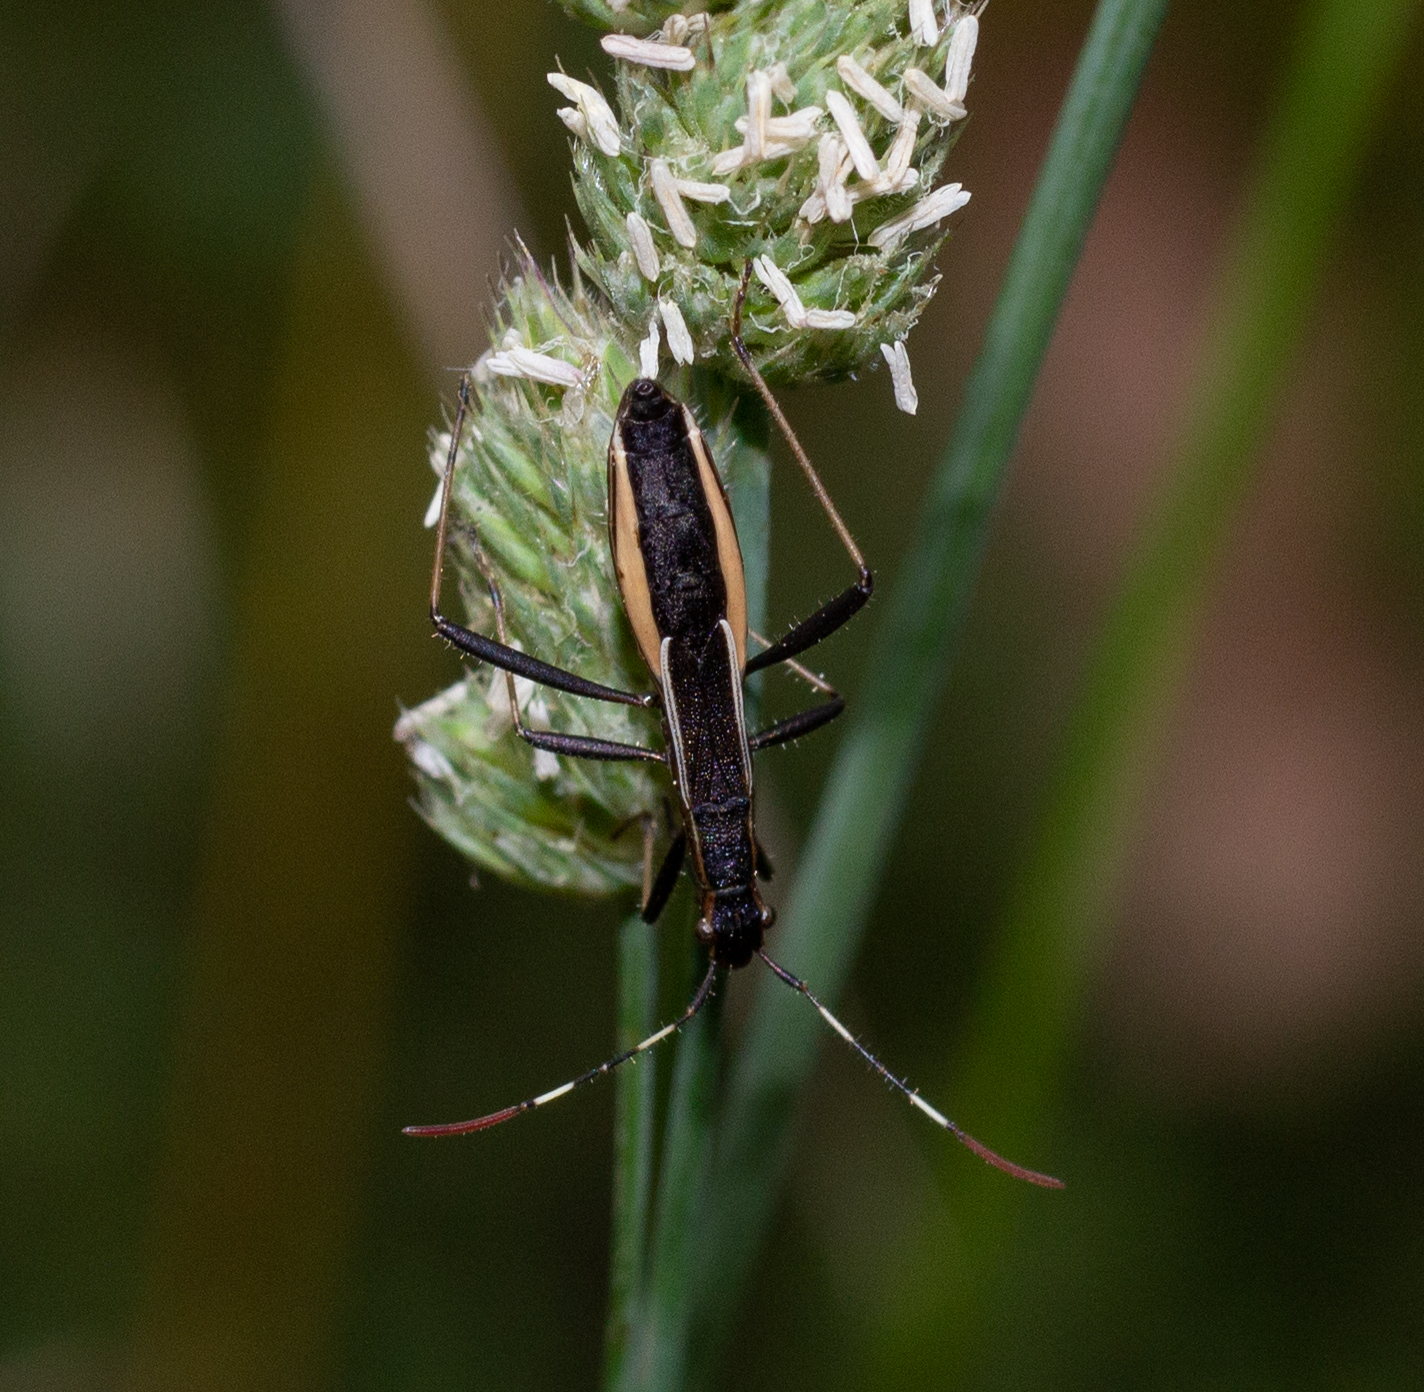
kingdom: Animalia
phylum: Arthropoda
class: Insecta
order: Hemiptera
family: Alydidae
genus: Micrelytra
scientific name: Micrelytra fossularum
